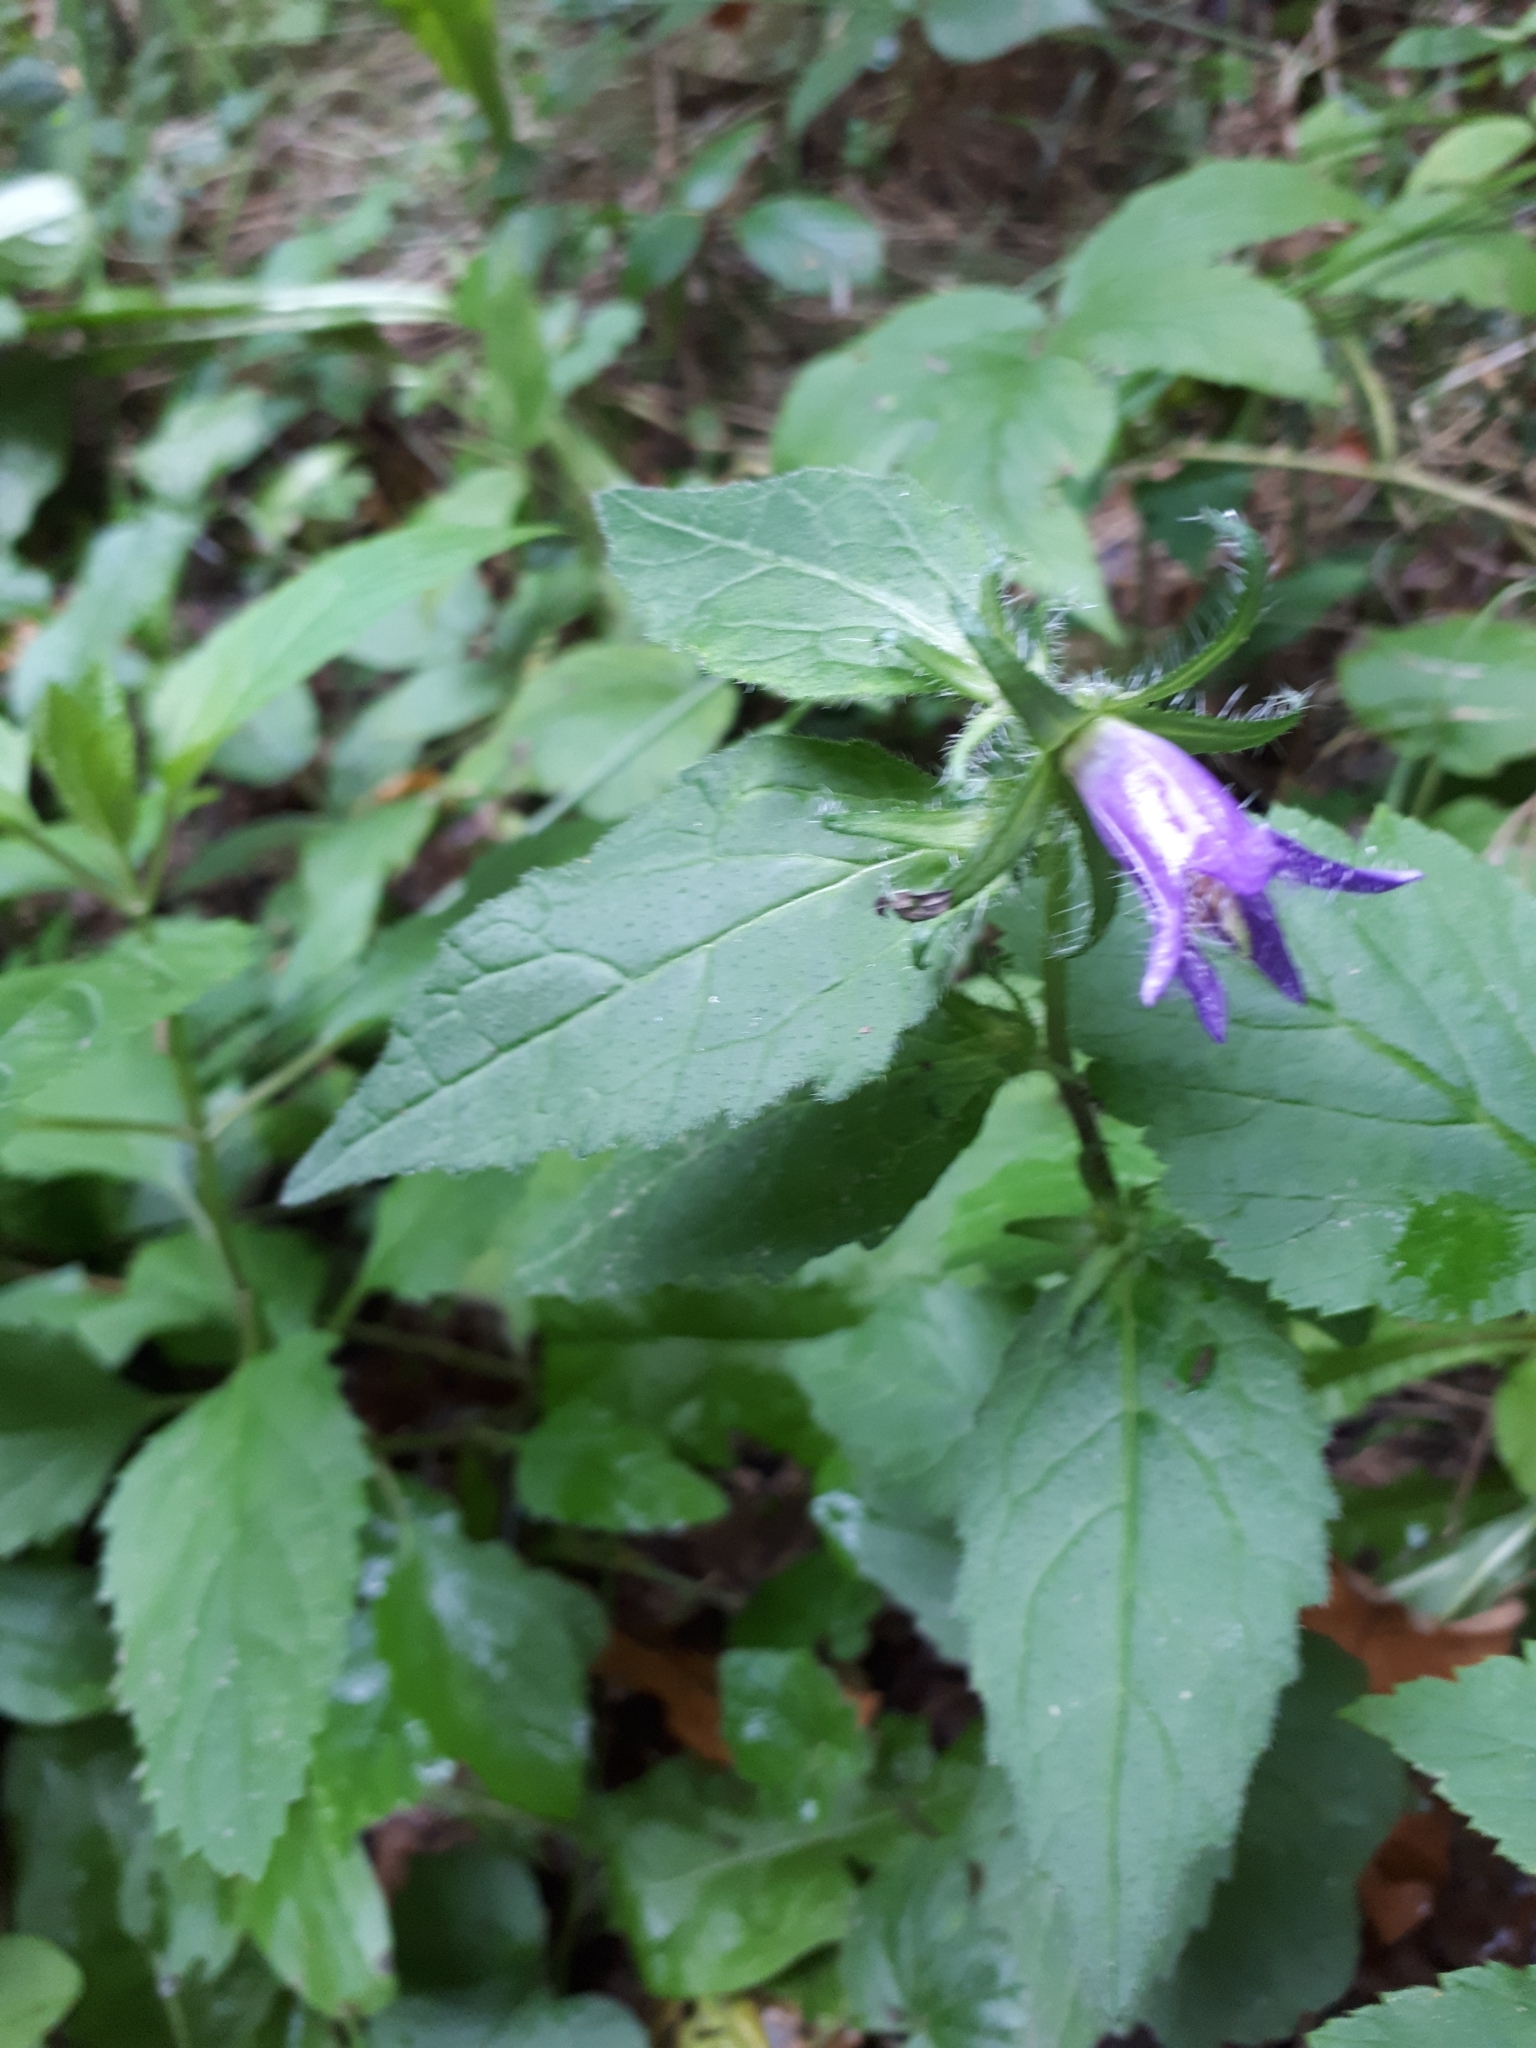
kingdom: Plantae
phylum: Tracheophyta
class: Magnoliopsida
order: Asterales
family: Campanulaceae
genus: Campanula
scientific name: Campanula trachelium
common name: Nettle-leaved bellflower
